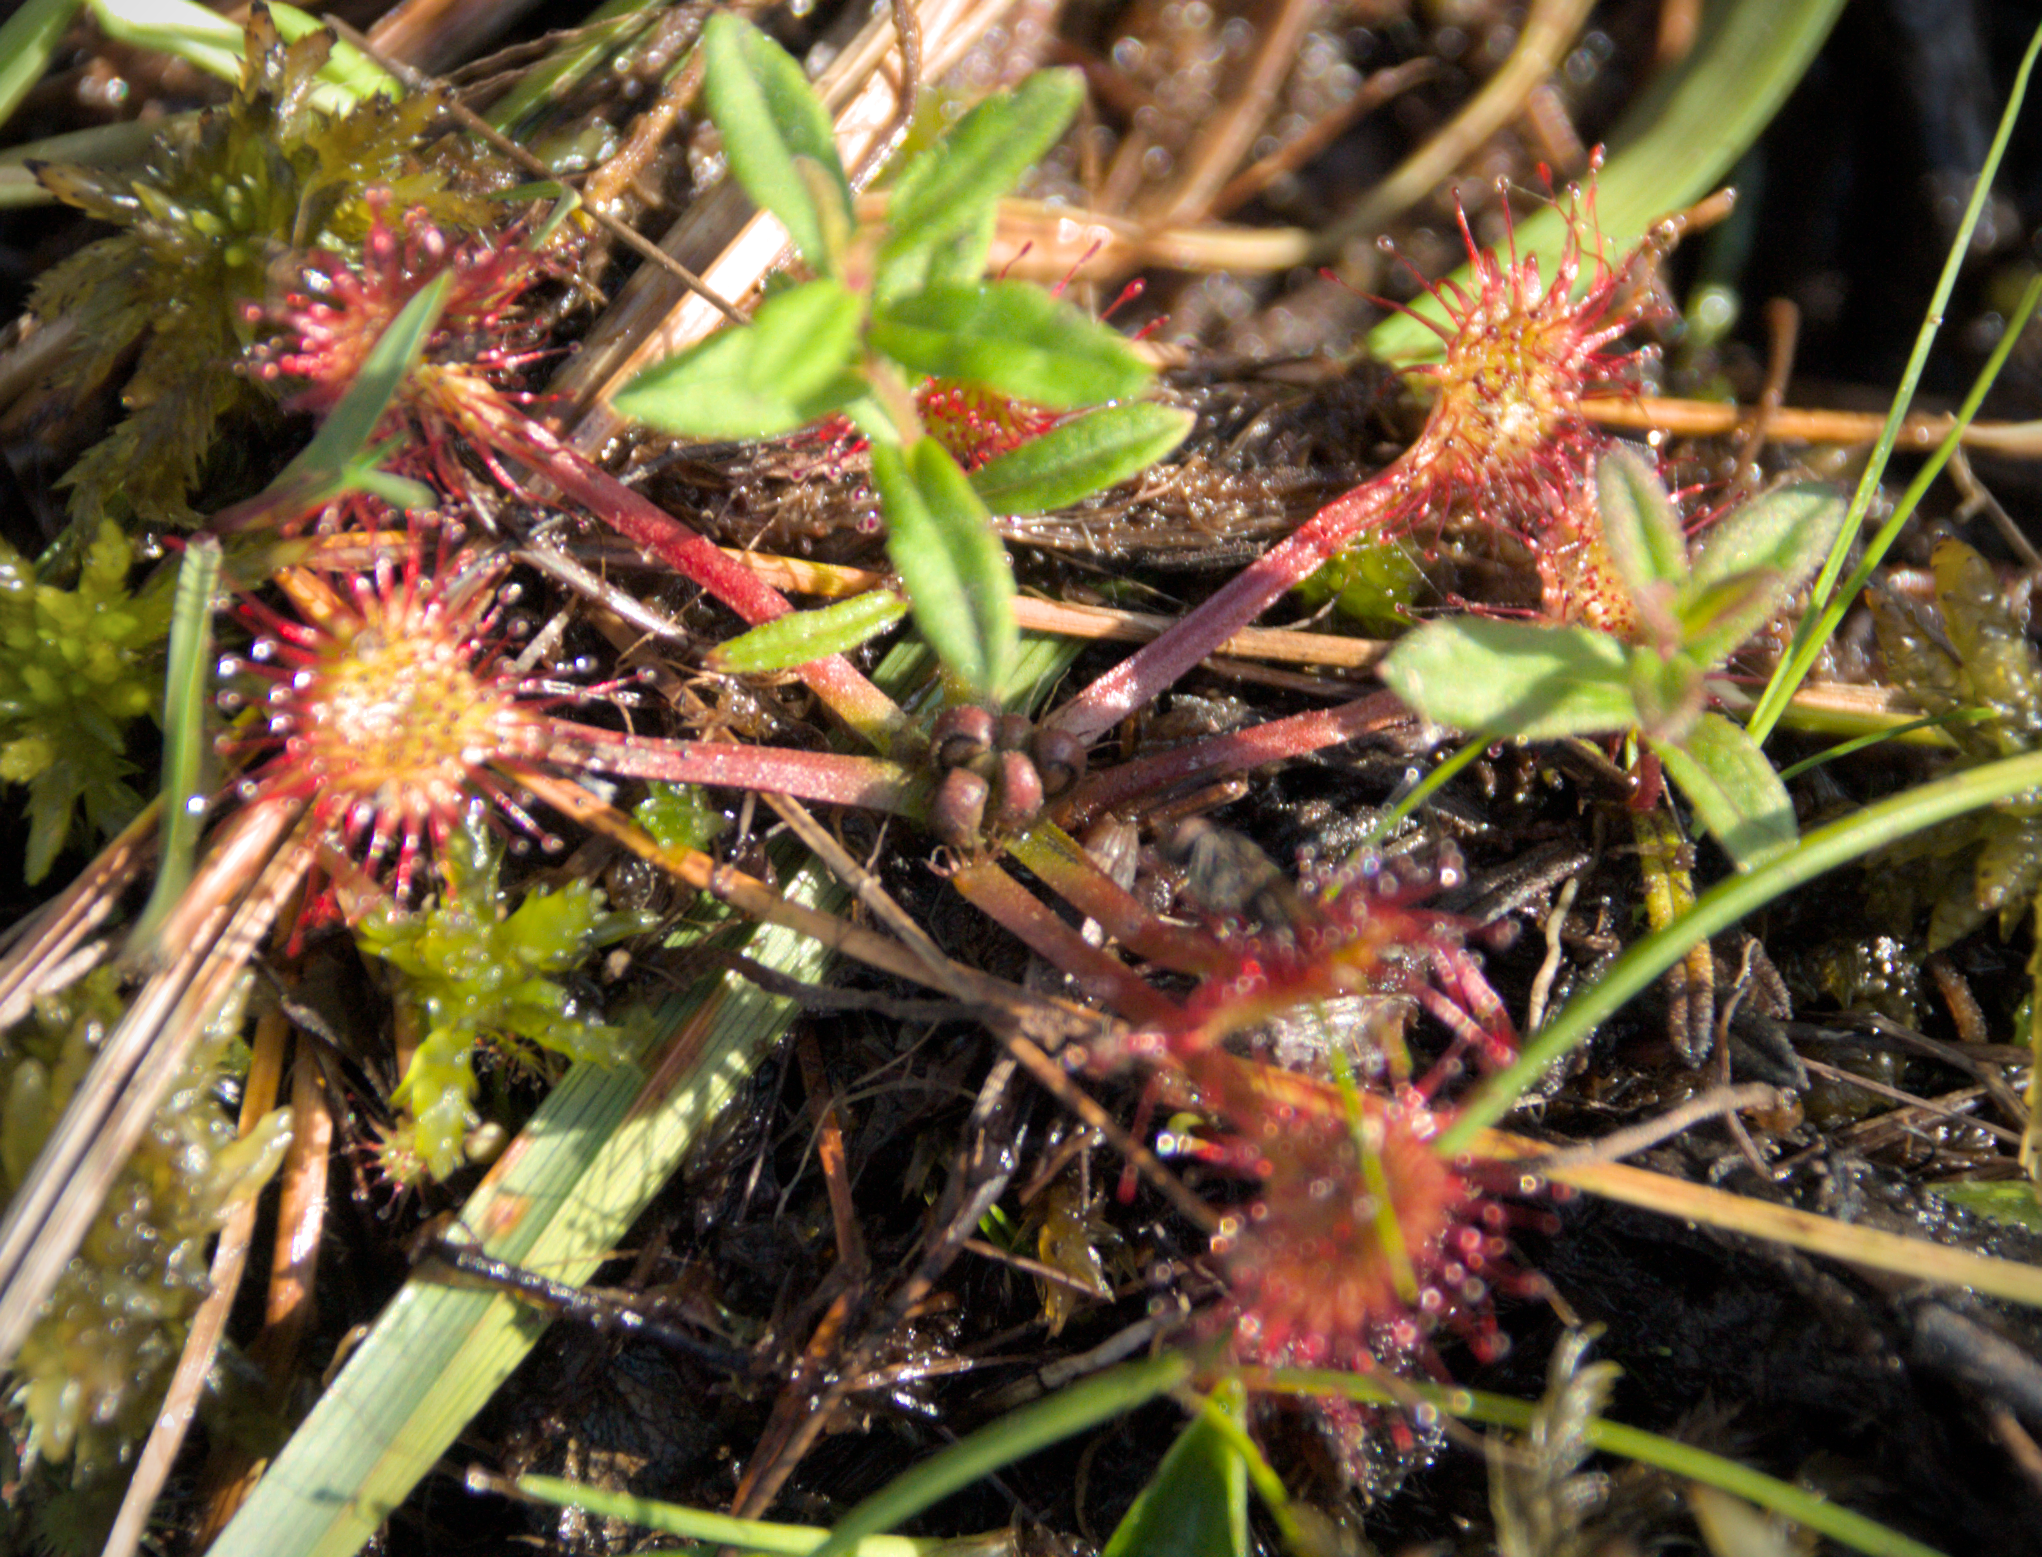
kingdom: Plantae
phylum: Tracheophyta
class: Magnoliopsida
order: Caryophyllales
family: Droseraceae
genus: Drosera
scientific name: Drosera rotundifolia
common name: Round-leaved sundew
